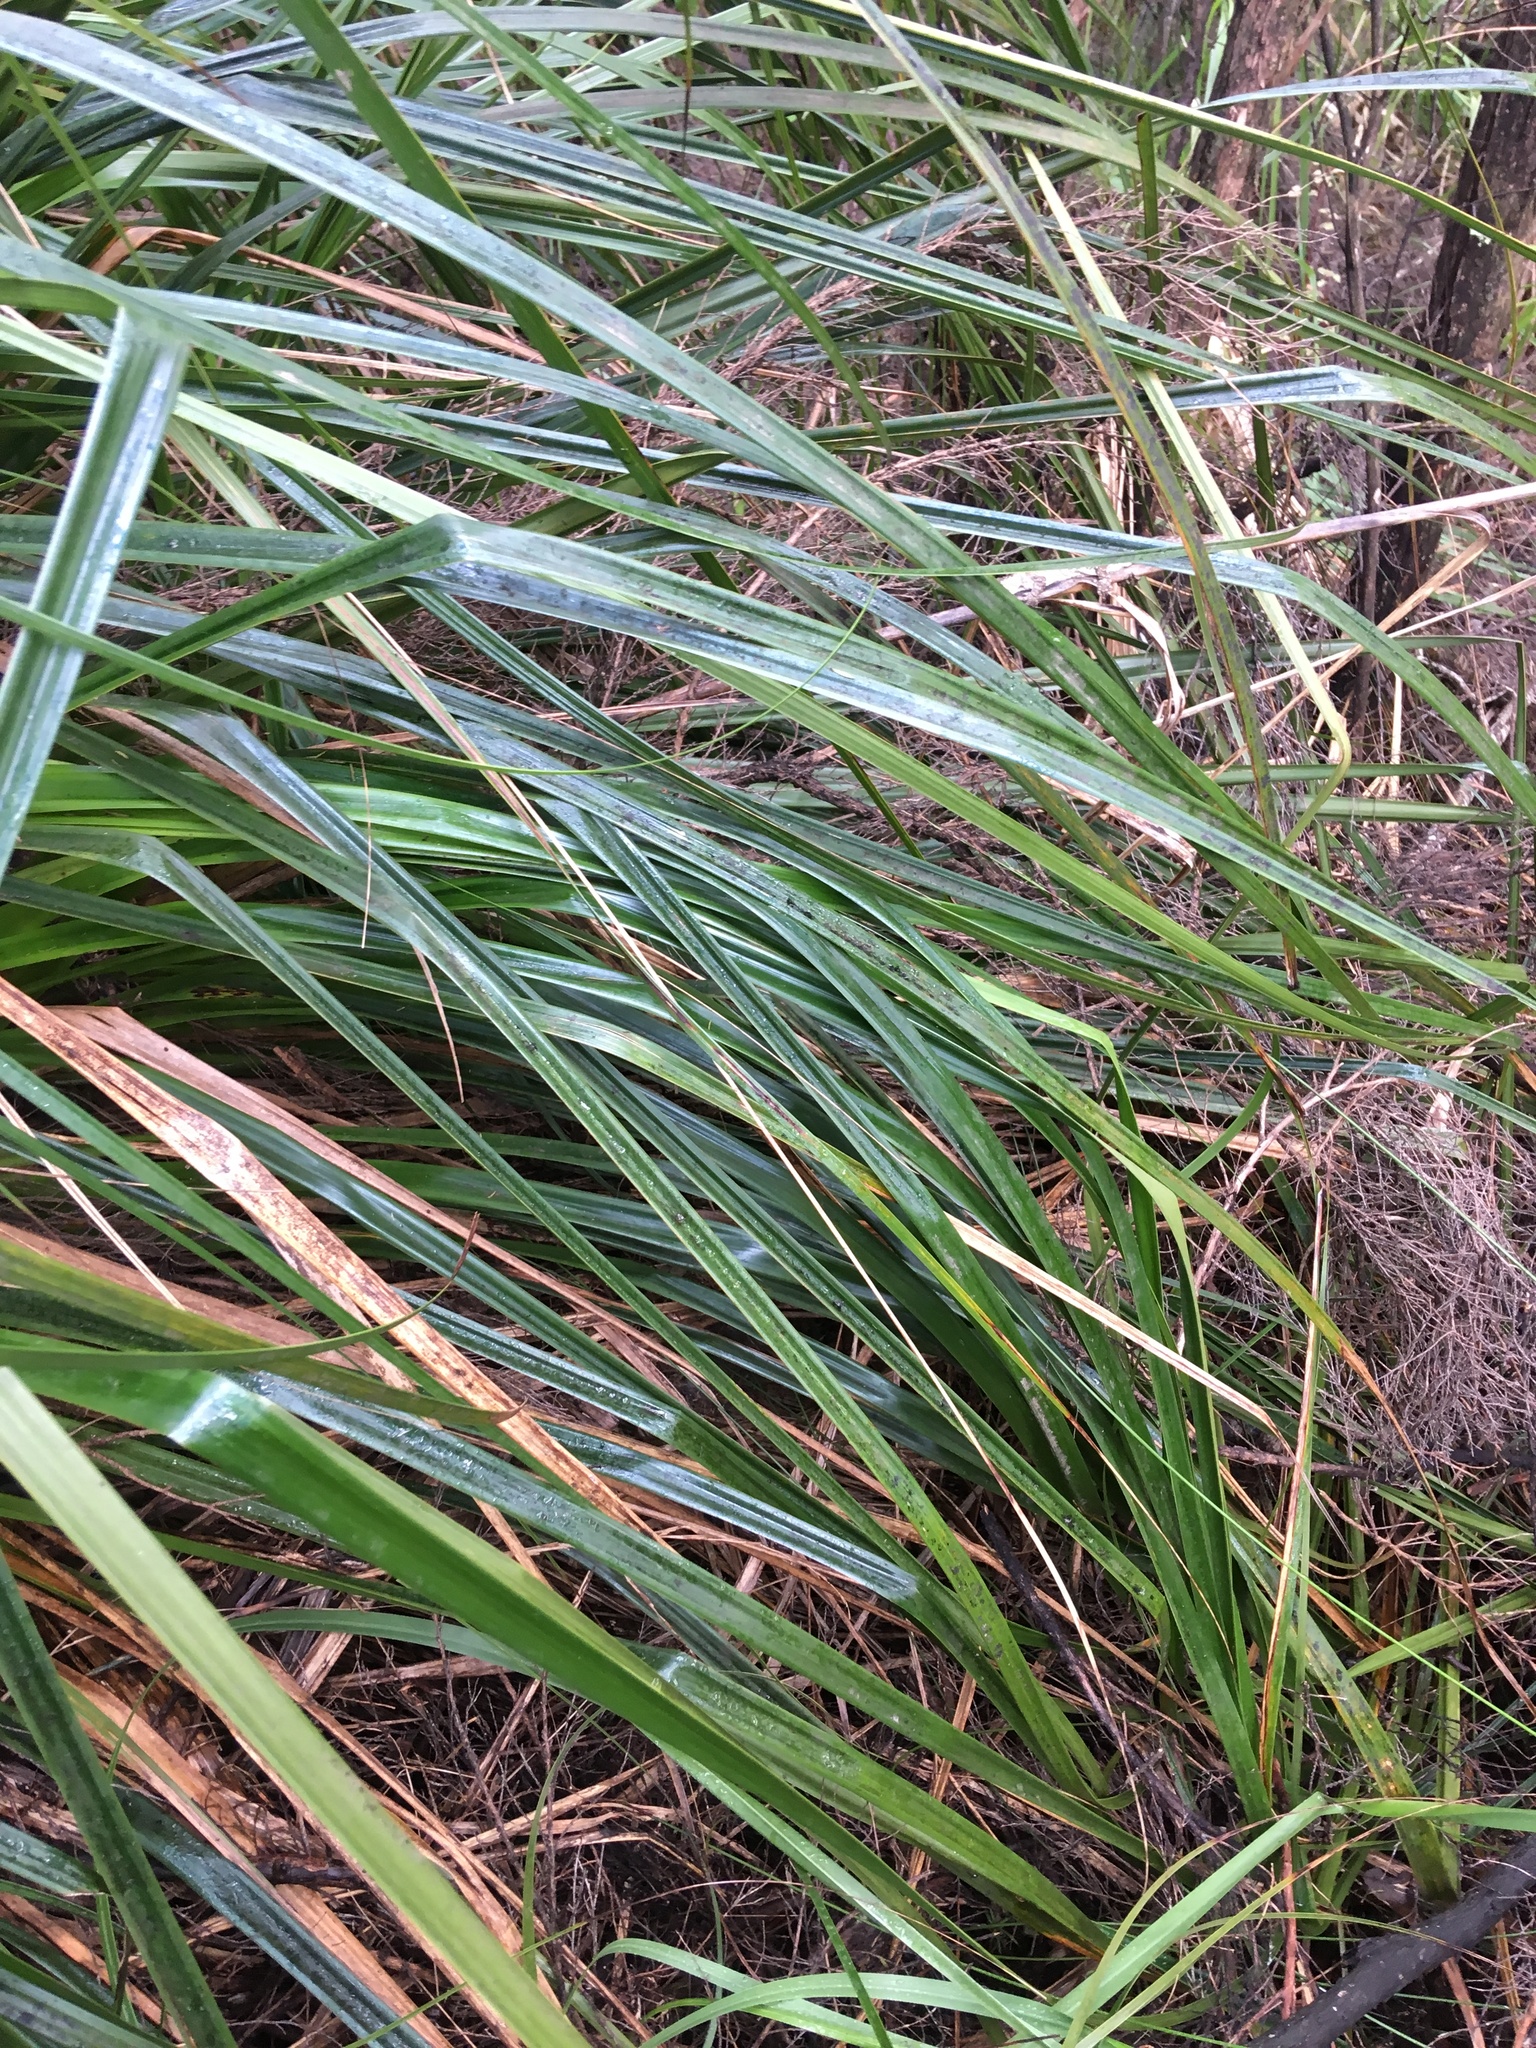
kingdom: Plantae
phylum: Tracheophyta
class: Liliopsida
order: Poales
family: Cyperaceae
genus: Gahnia
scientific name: Gahnia xanthocarpa
